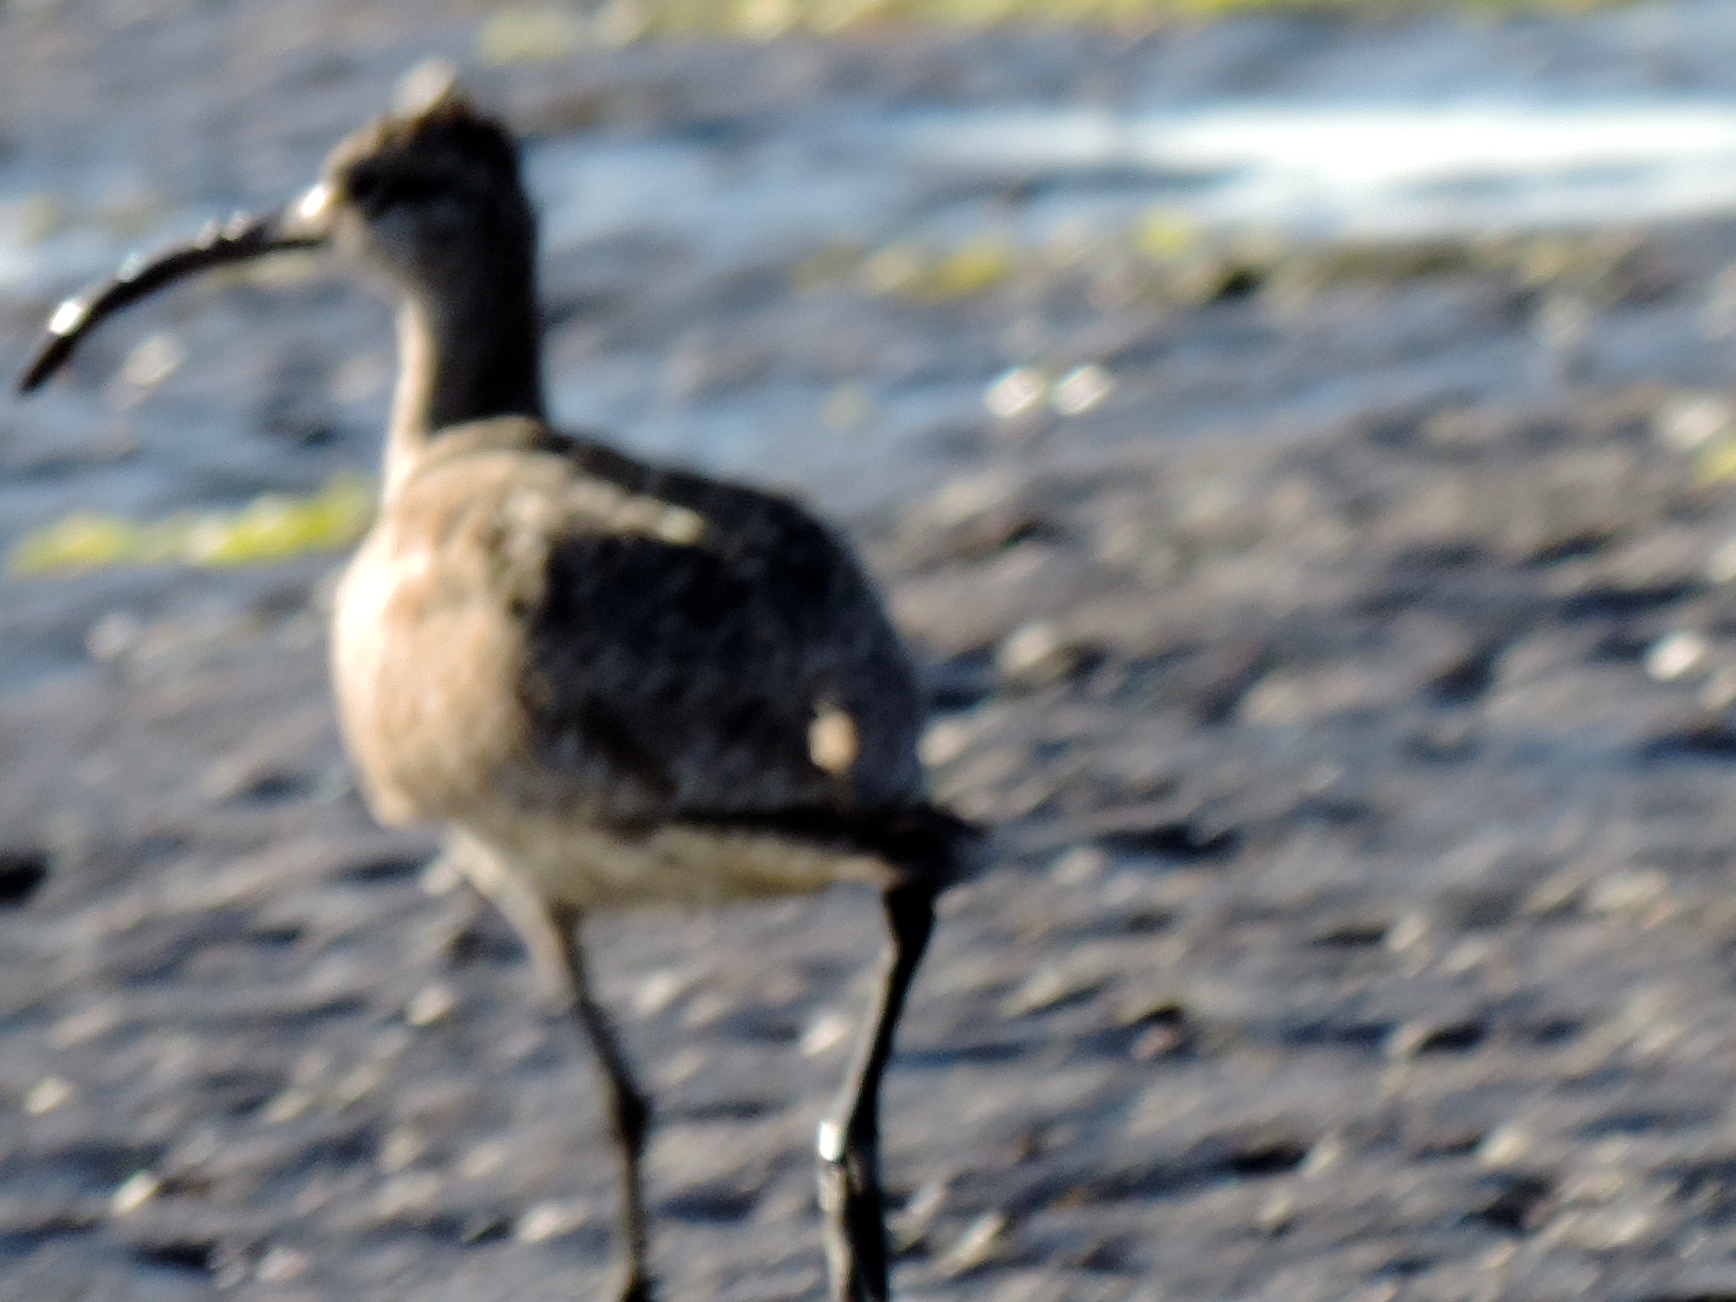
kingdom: Animalia
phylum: Chordata
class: Aves
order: Charadriiformes
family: Scolopacidae
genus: Numenius
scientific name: Numenius phaeopus
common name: Whimbrel
